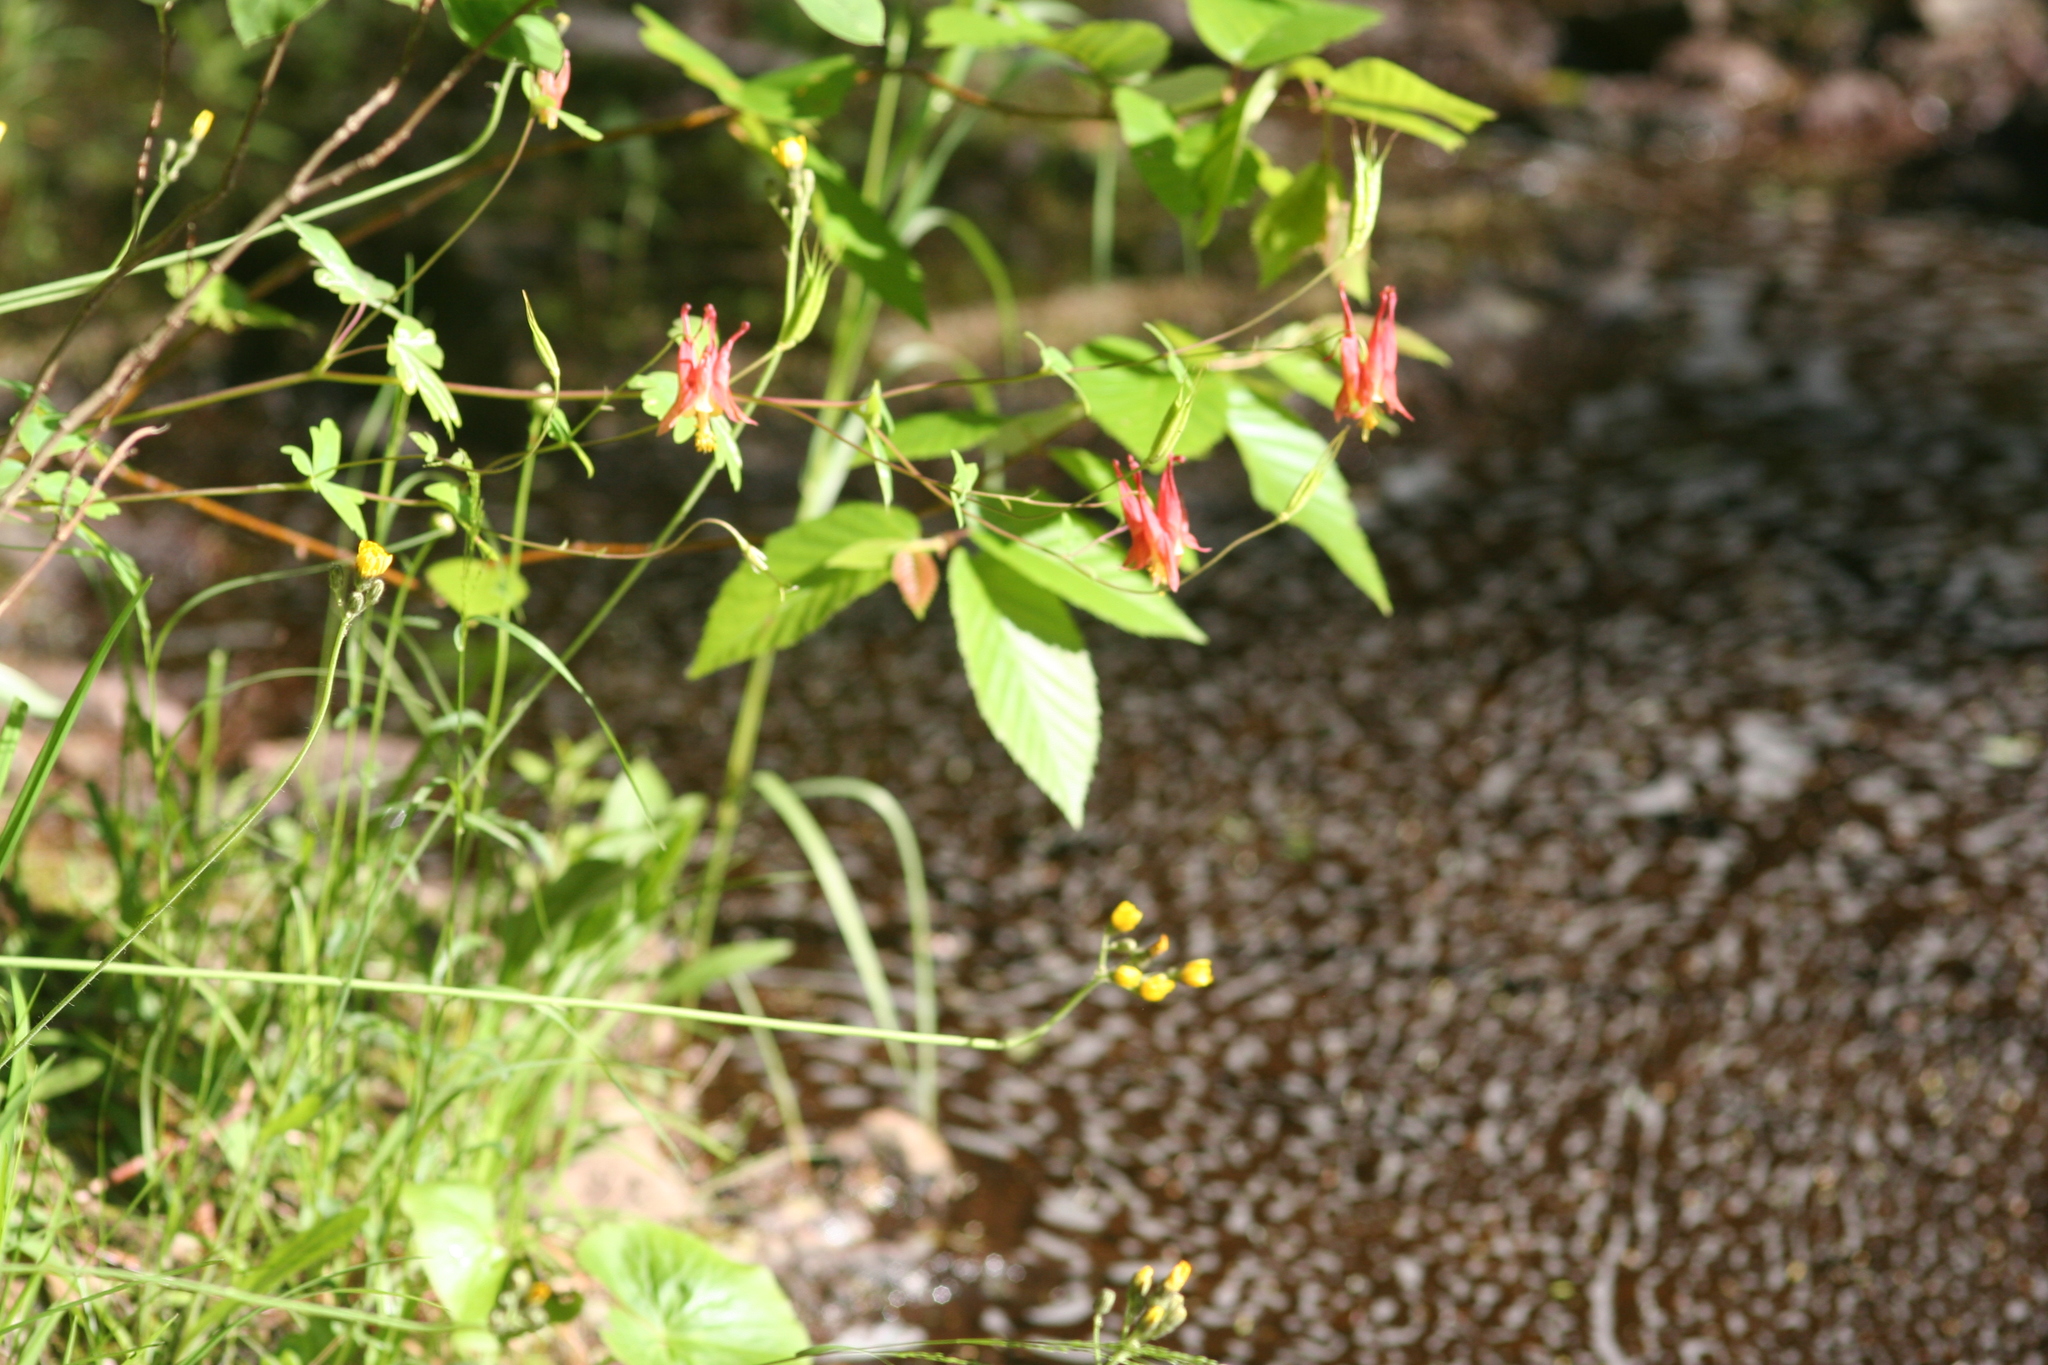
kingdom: Plantae
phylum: Tracheophyta
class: Magnoliopsida
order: Ranunculales
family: Ranunculaceae
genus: Aquilegia
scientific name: Aquilegia canadensis
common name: American columbine
